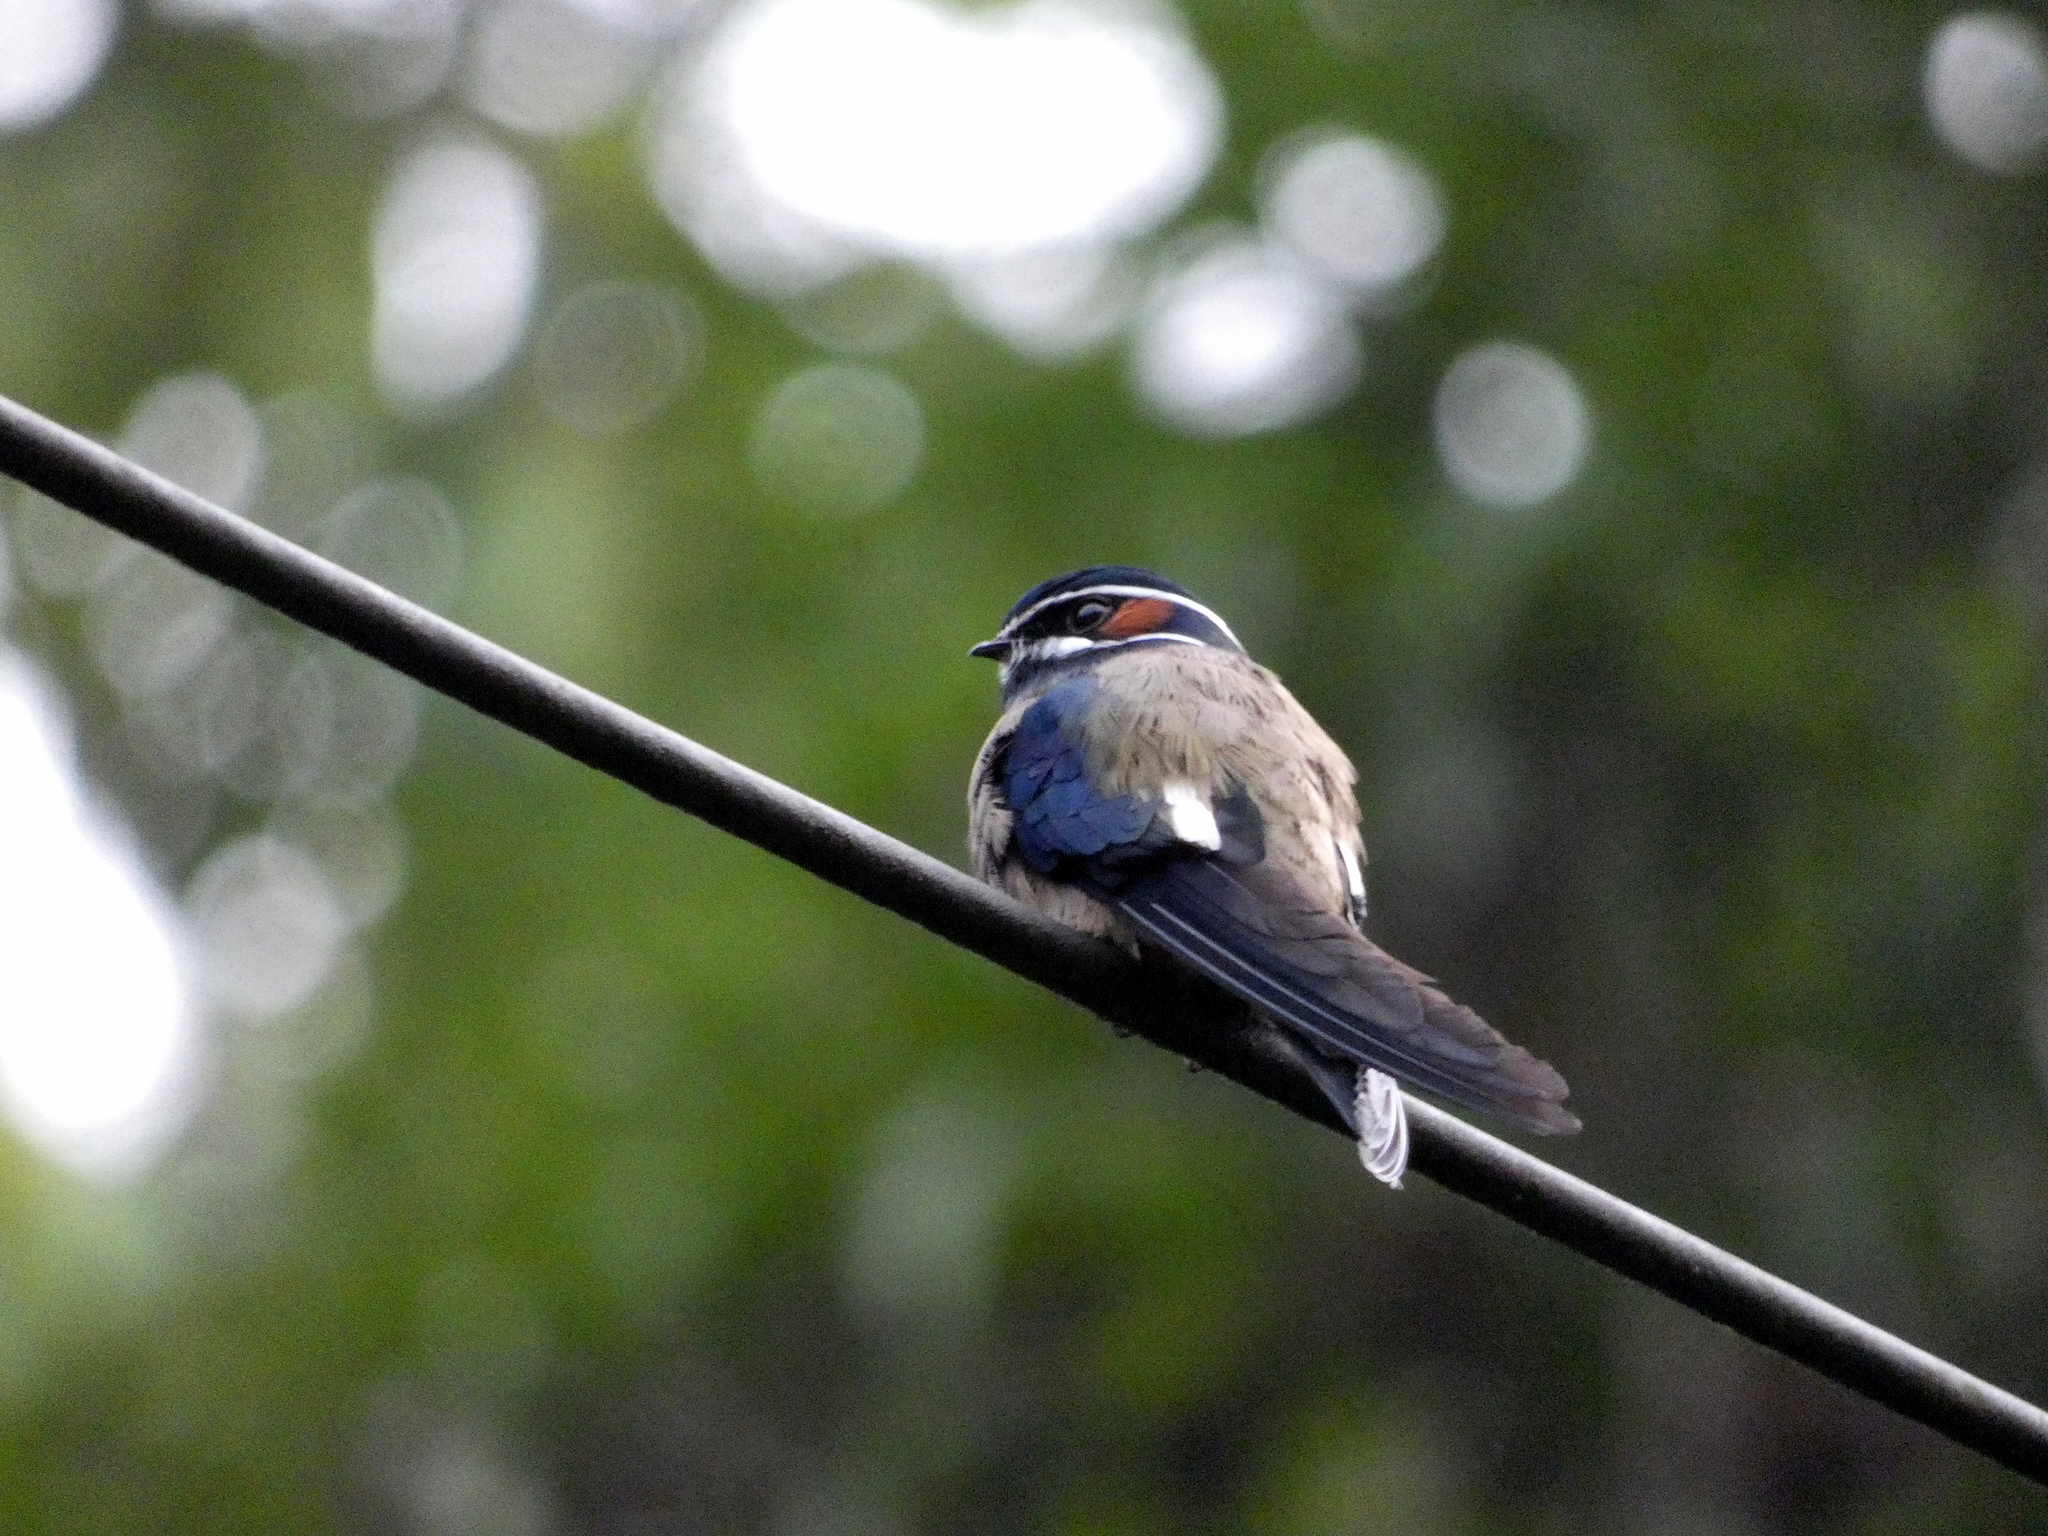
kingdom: Animalia
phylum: Chordata
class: Aves
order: Apodiformes
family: Hemiprocnidae
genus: Hemiprocne
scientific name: Hemiprocne comata
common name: Whiskered treeswift
